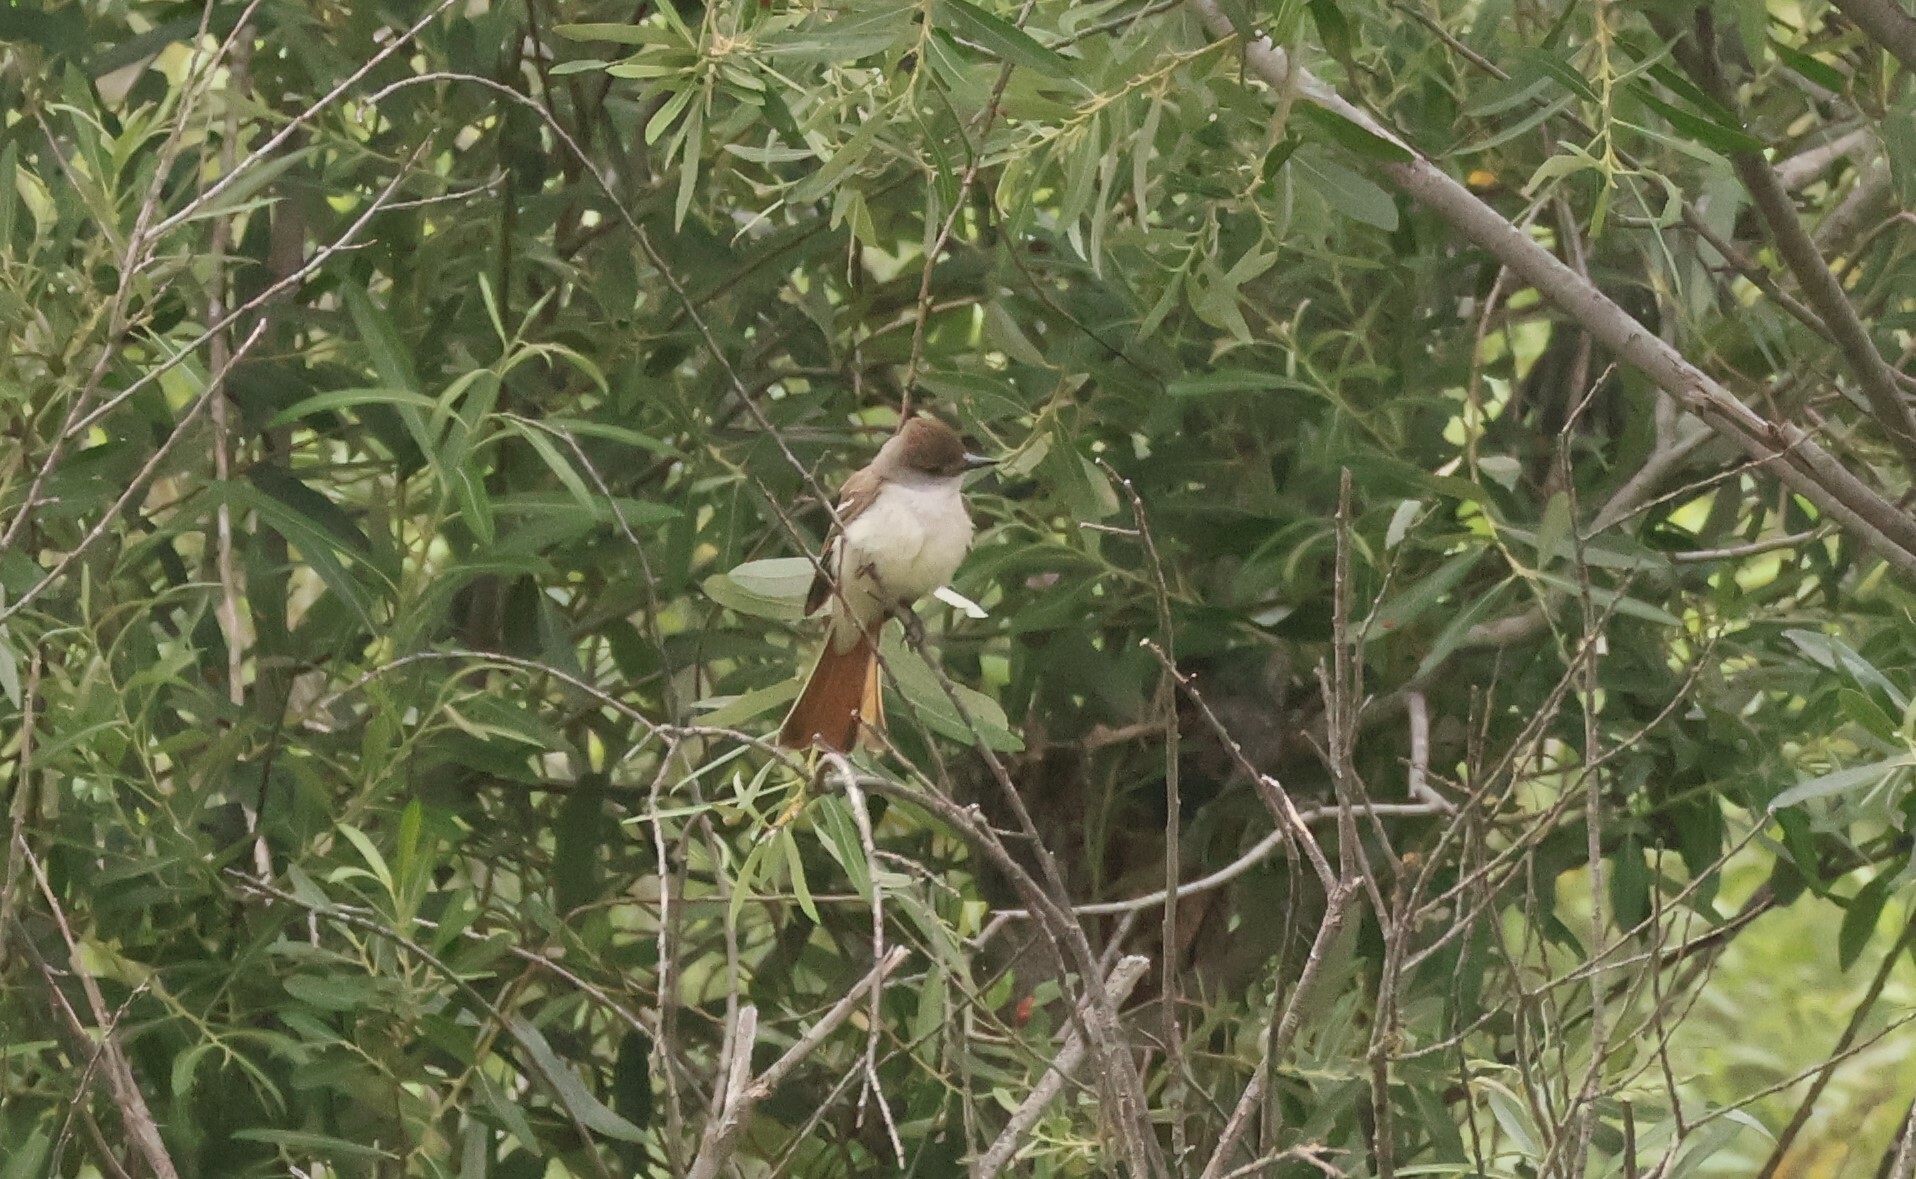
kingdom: Animalia
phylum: Chordata
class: Aves
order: Passeriformes
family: Tyrannidae
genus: Myiarchus
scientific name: Myiarchus cinerascens
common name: Ash-throated flycatcher
